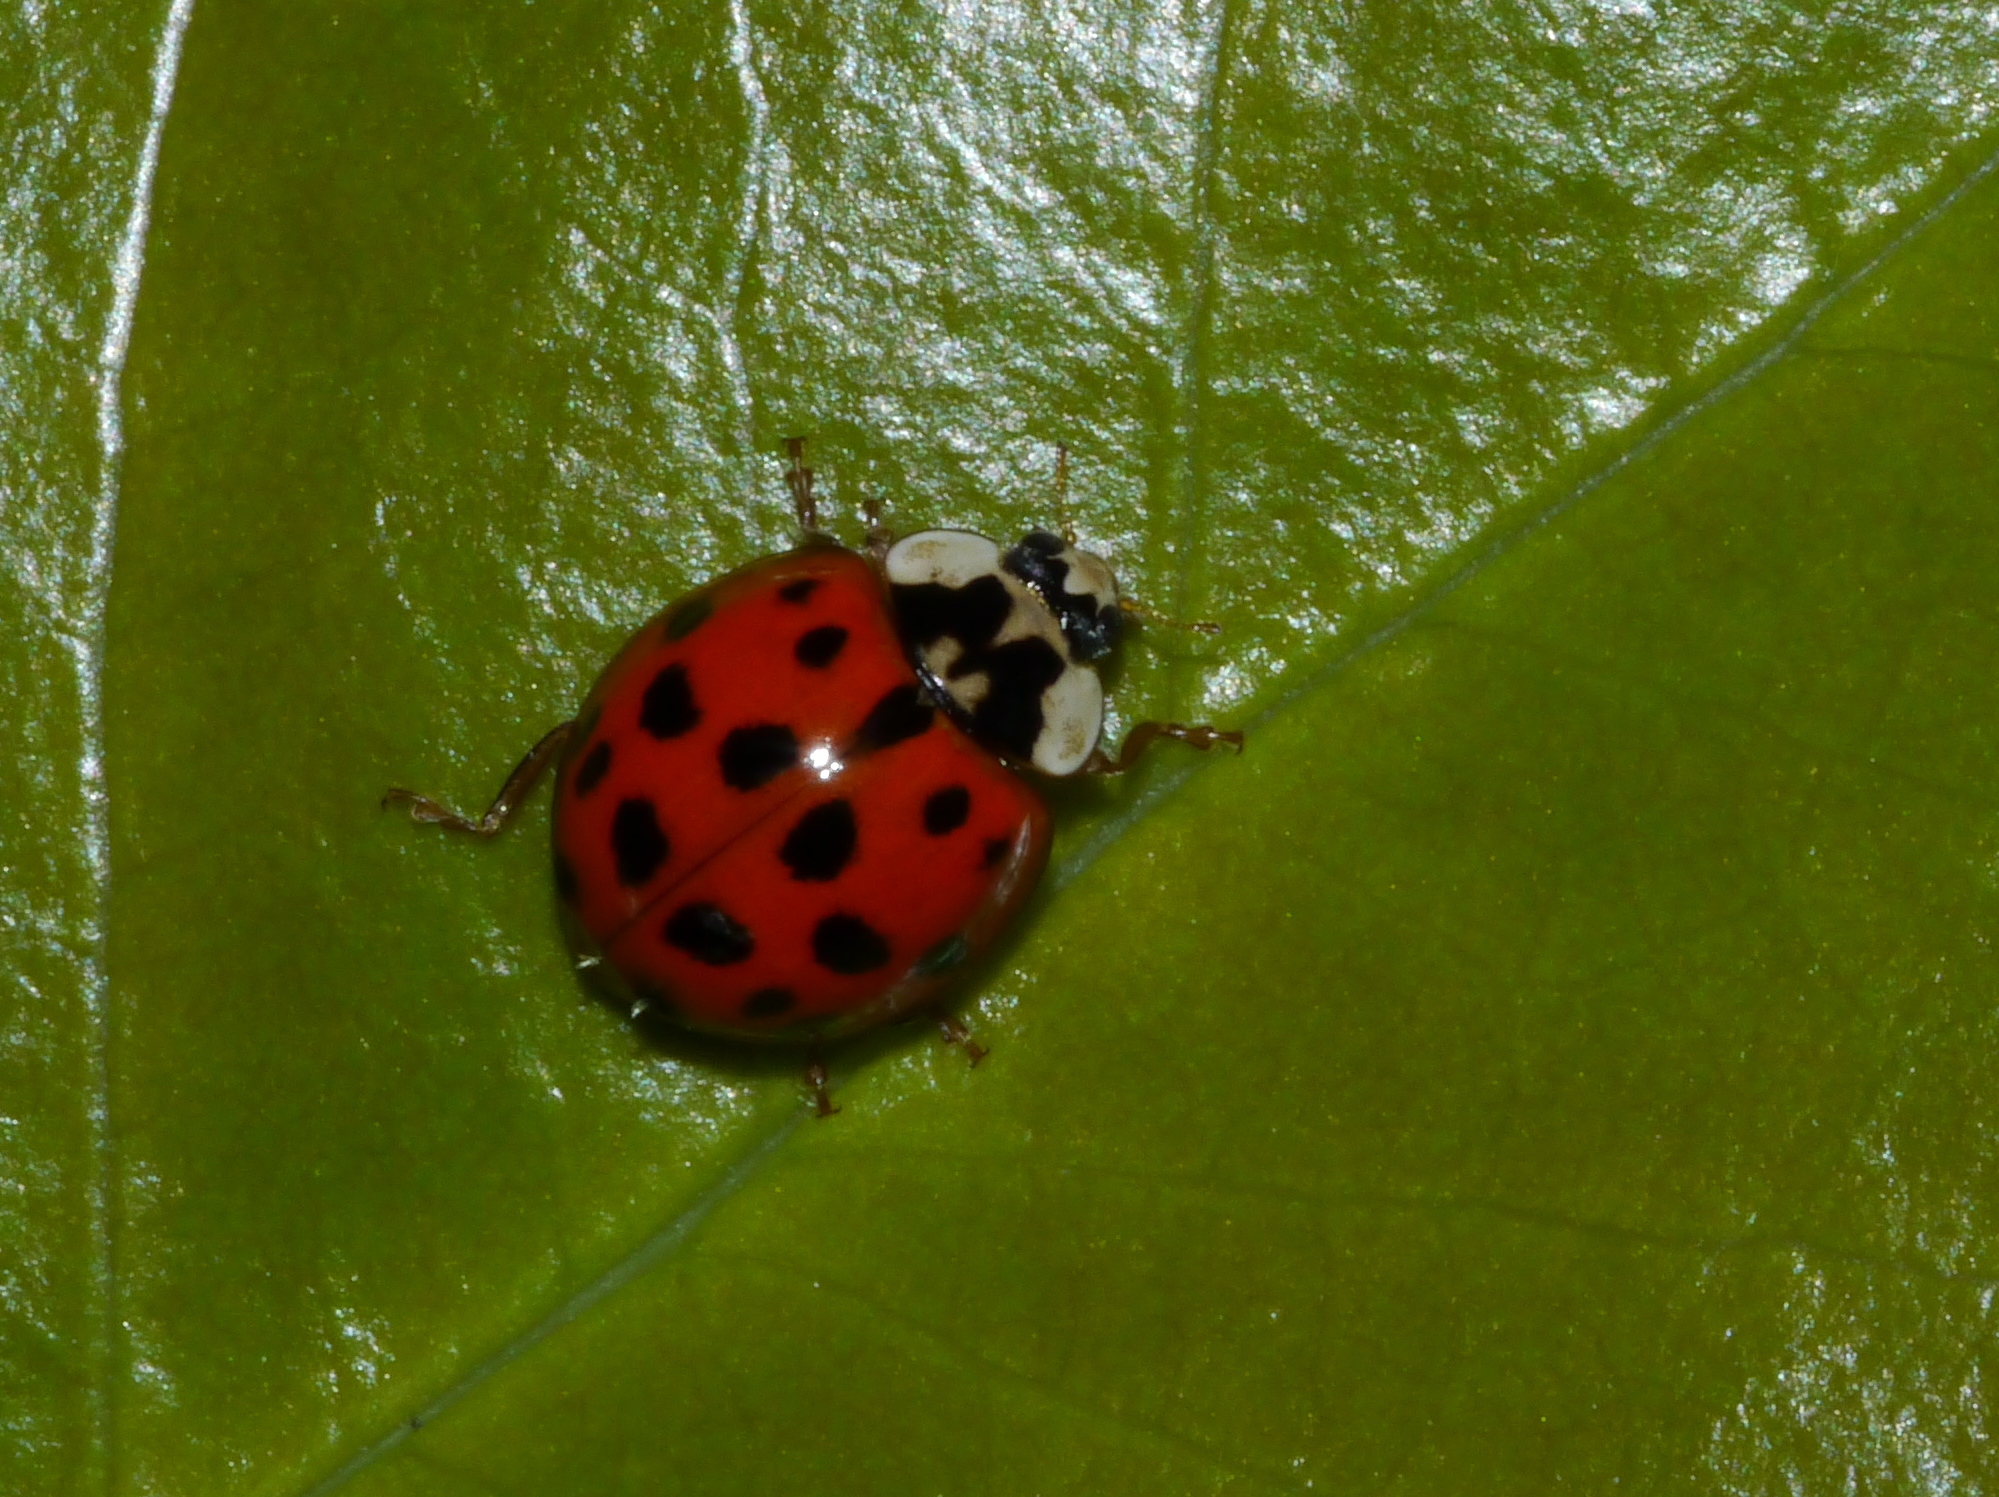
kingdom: Animalia
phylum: Arthropoda
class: Insecta
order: Coleoptera
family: Coccinellidae
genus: Harmonia
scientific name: Harmonia axyridis
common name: Harlequin ladybird
